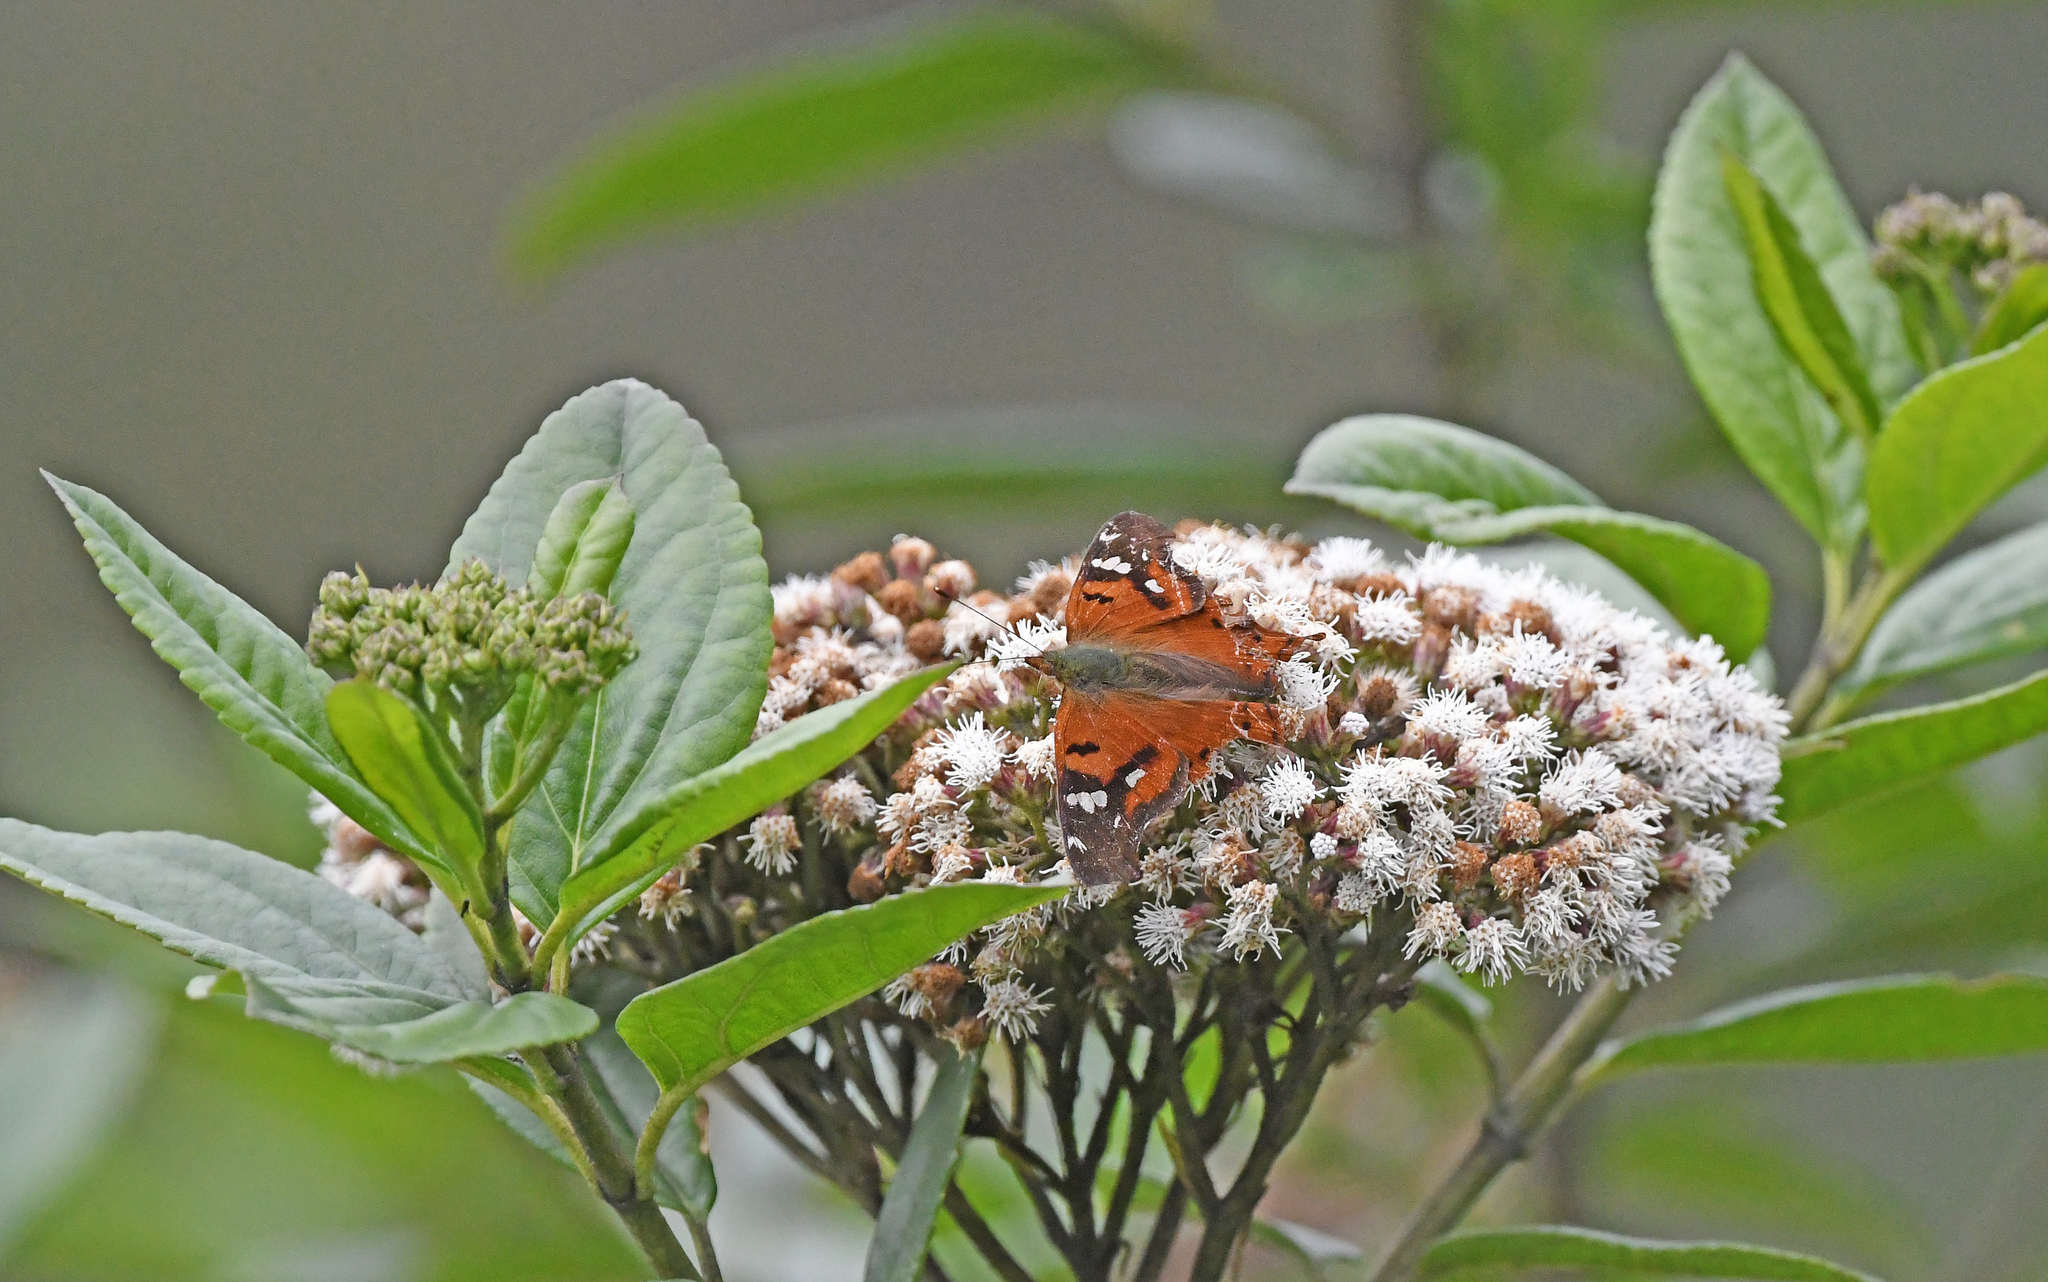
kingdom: Animalia
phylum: Arthropoda
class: Insecta
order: Lepidoptera
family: Nymphalidae
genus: Hypanartia
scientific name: Hypanartia lindigii
